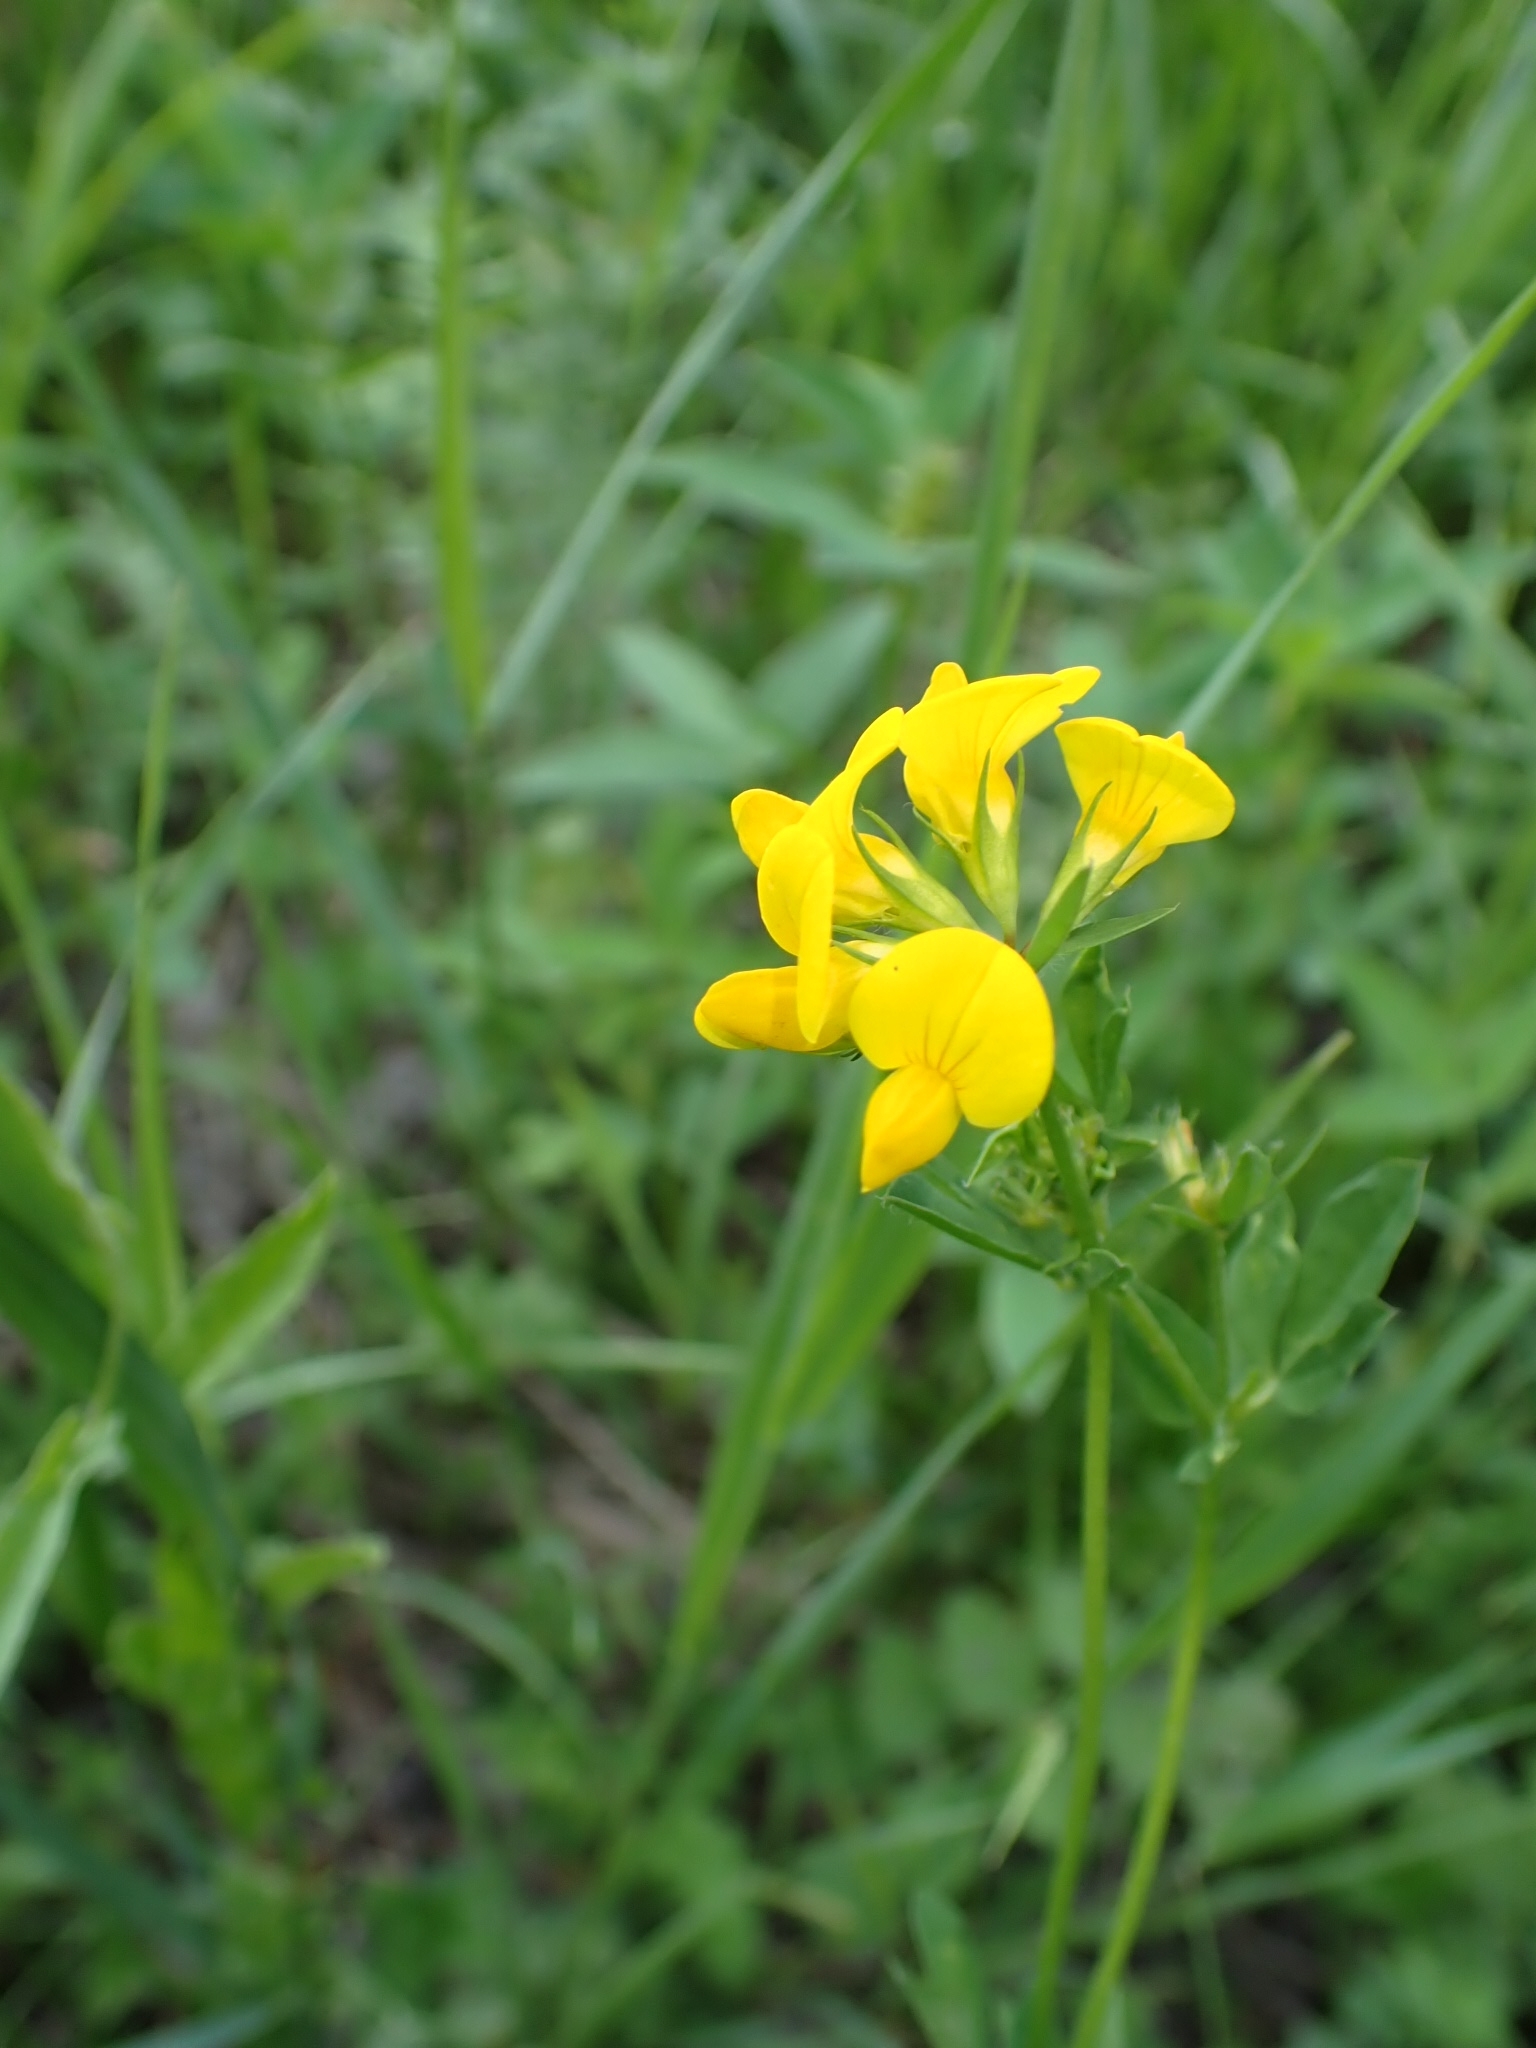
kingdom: Plantae
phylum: Tracheophyta
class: Magnoliopsida
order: Fabales
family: Fabaceae
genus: Lathyrus
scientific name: Lathyrus pratensis
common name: Meadow vetchling
